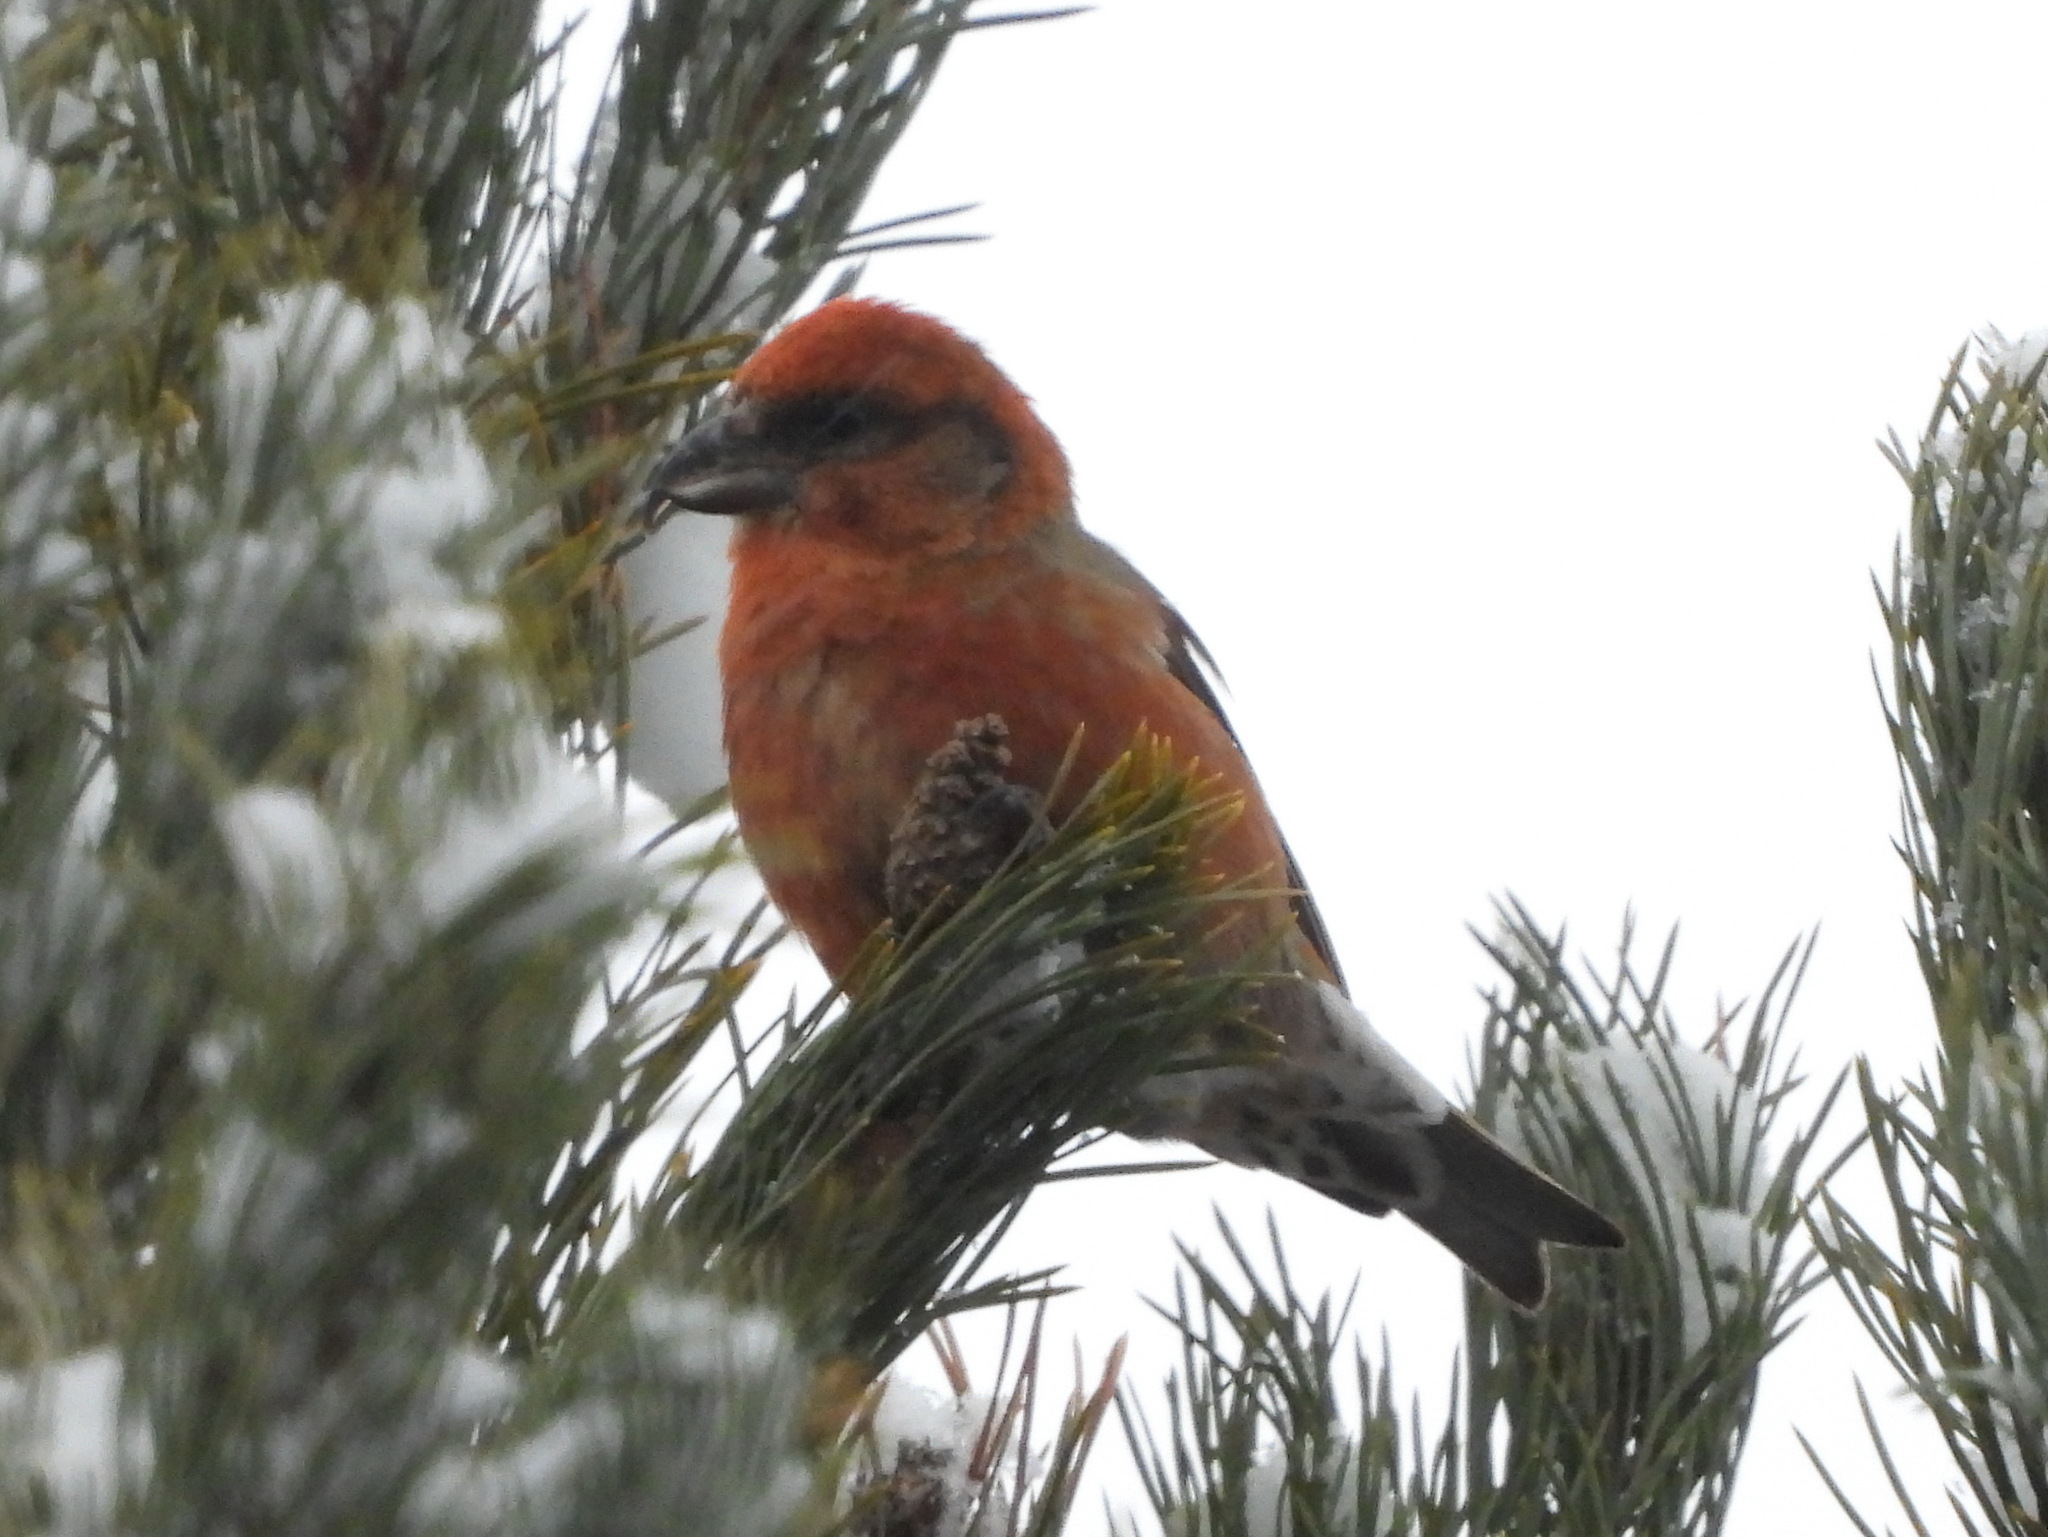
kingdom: Animalia
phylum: Chordata
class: Aves
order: Passeriformes
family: Fringillidae
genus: Loxia
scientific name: Loxia curvirostra
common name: Red crossbill
